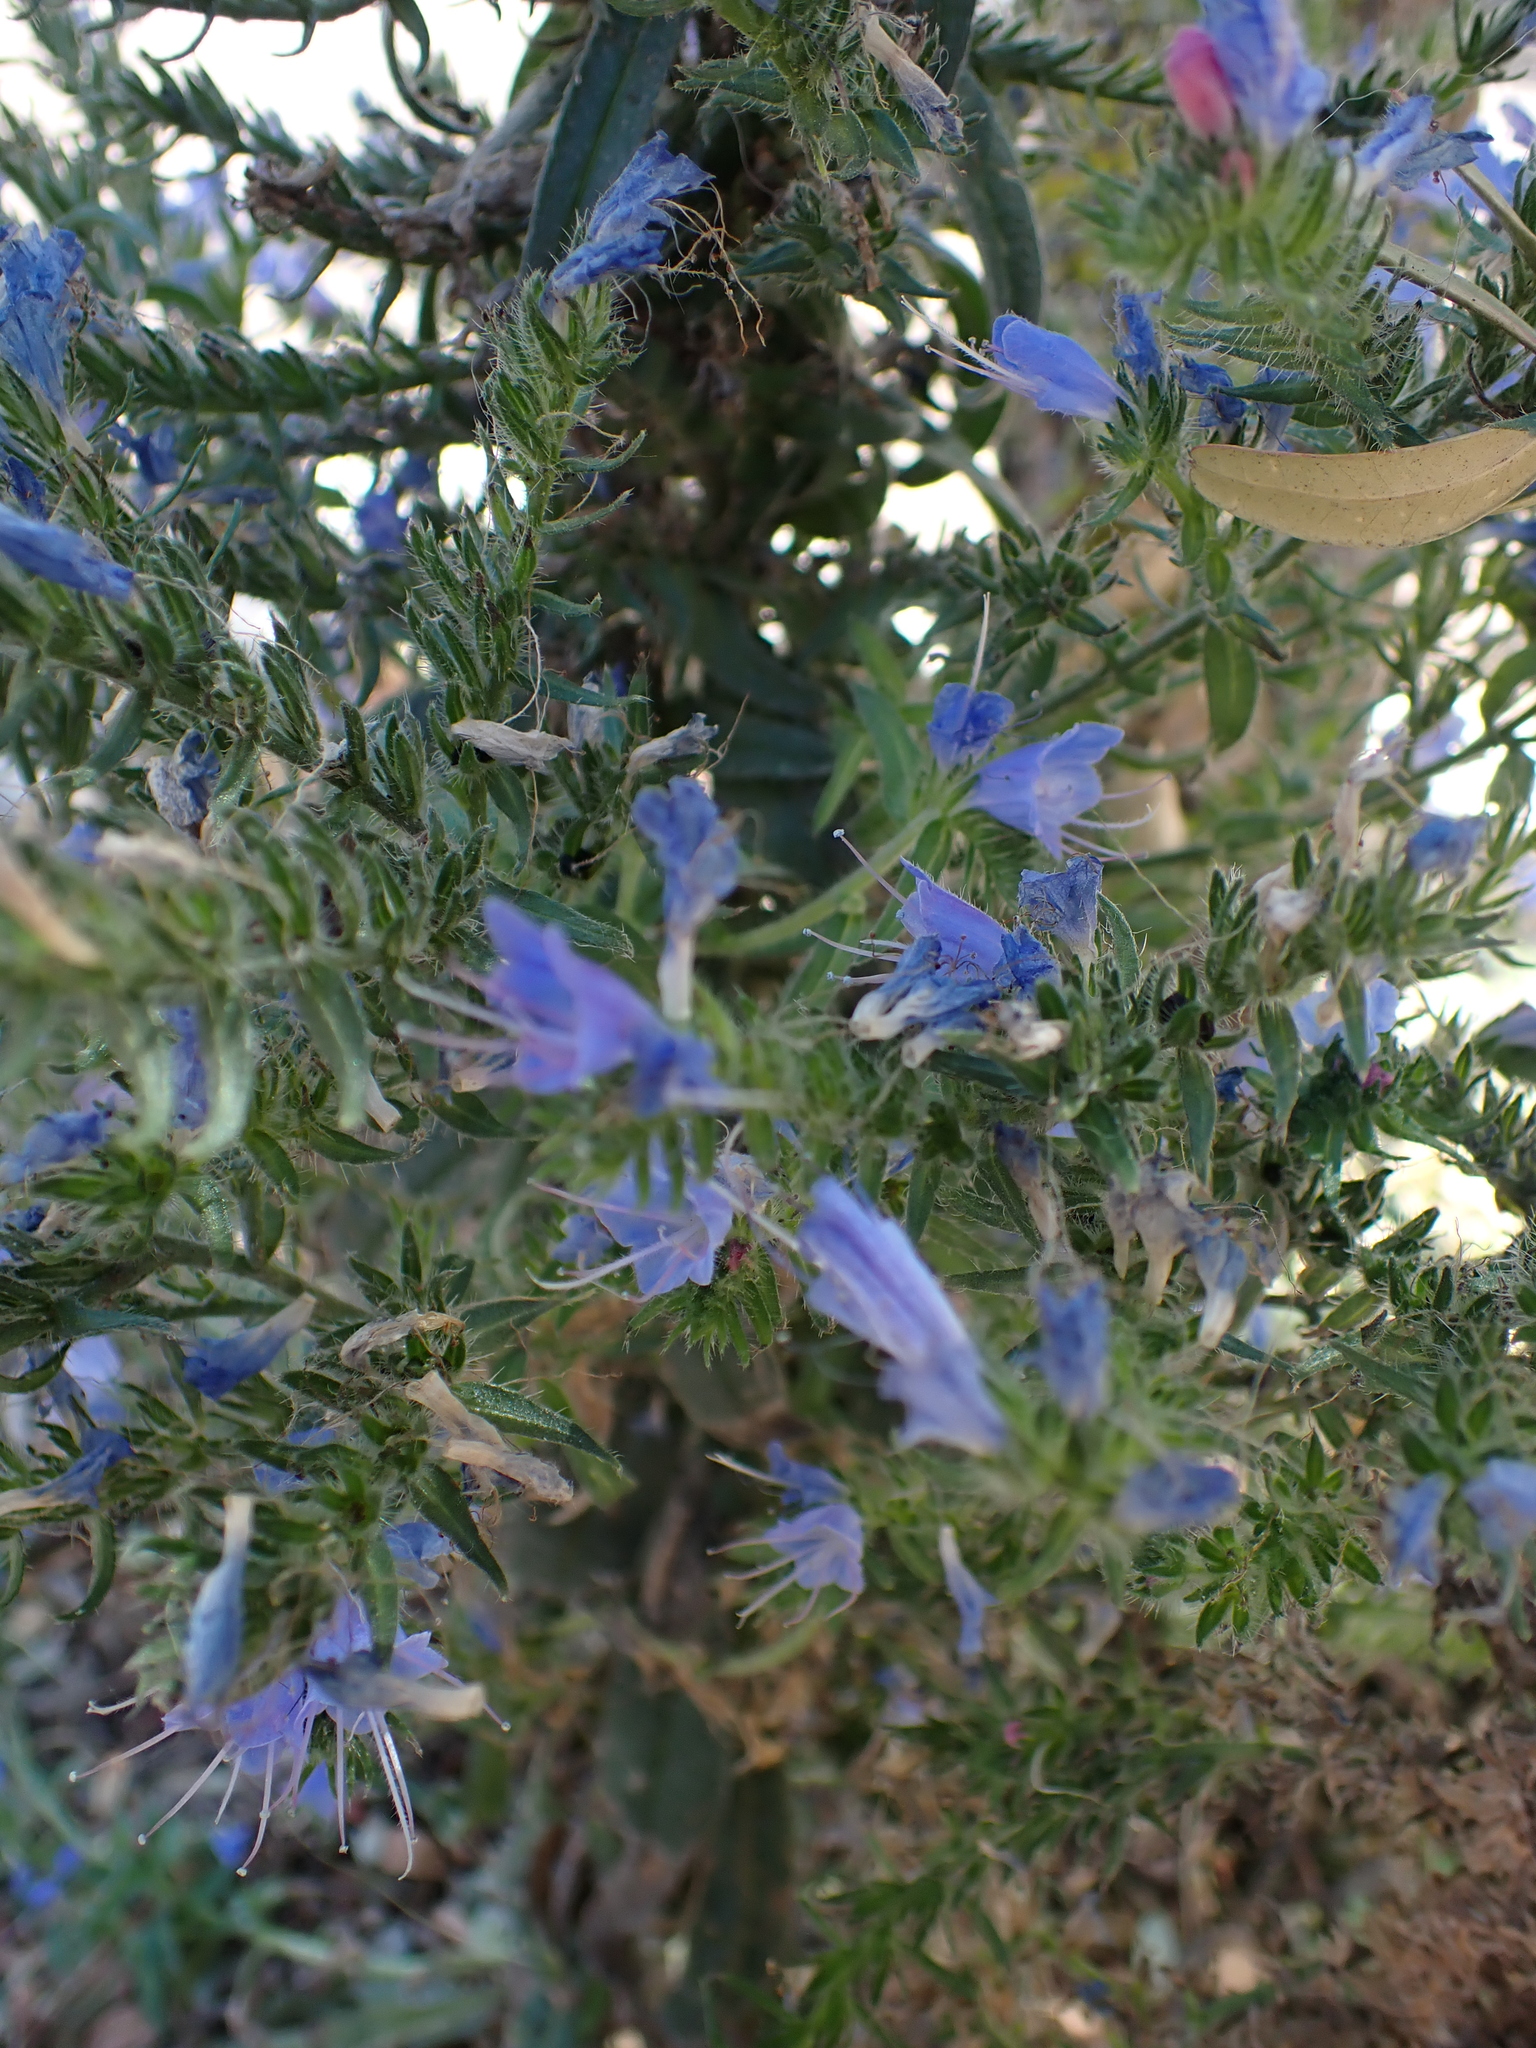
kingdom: Plantae
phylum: Tracheophyta
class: Magnoliopsida
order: Boraginales
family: Boraginaceae
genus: Echium
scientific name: Echium vulgare
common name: Common viper's bugloss
